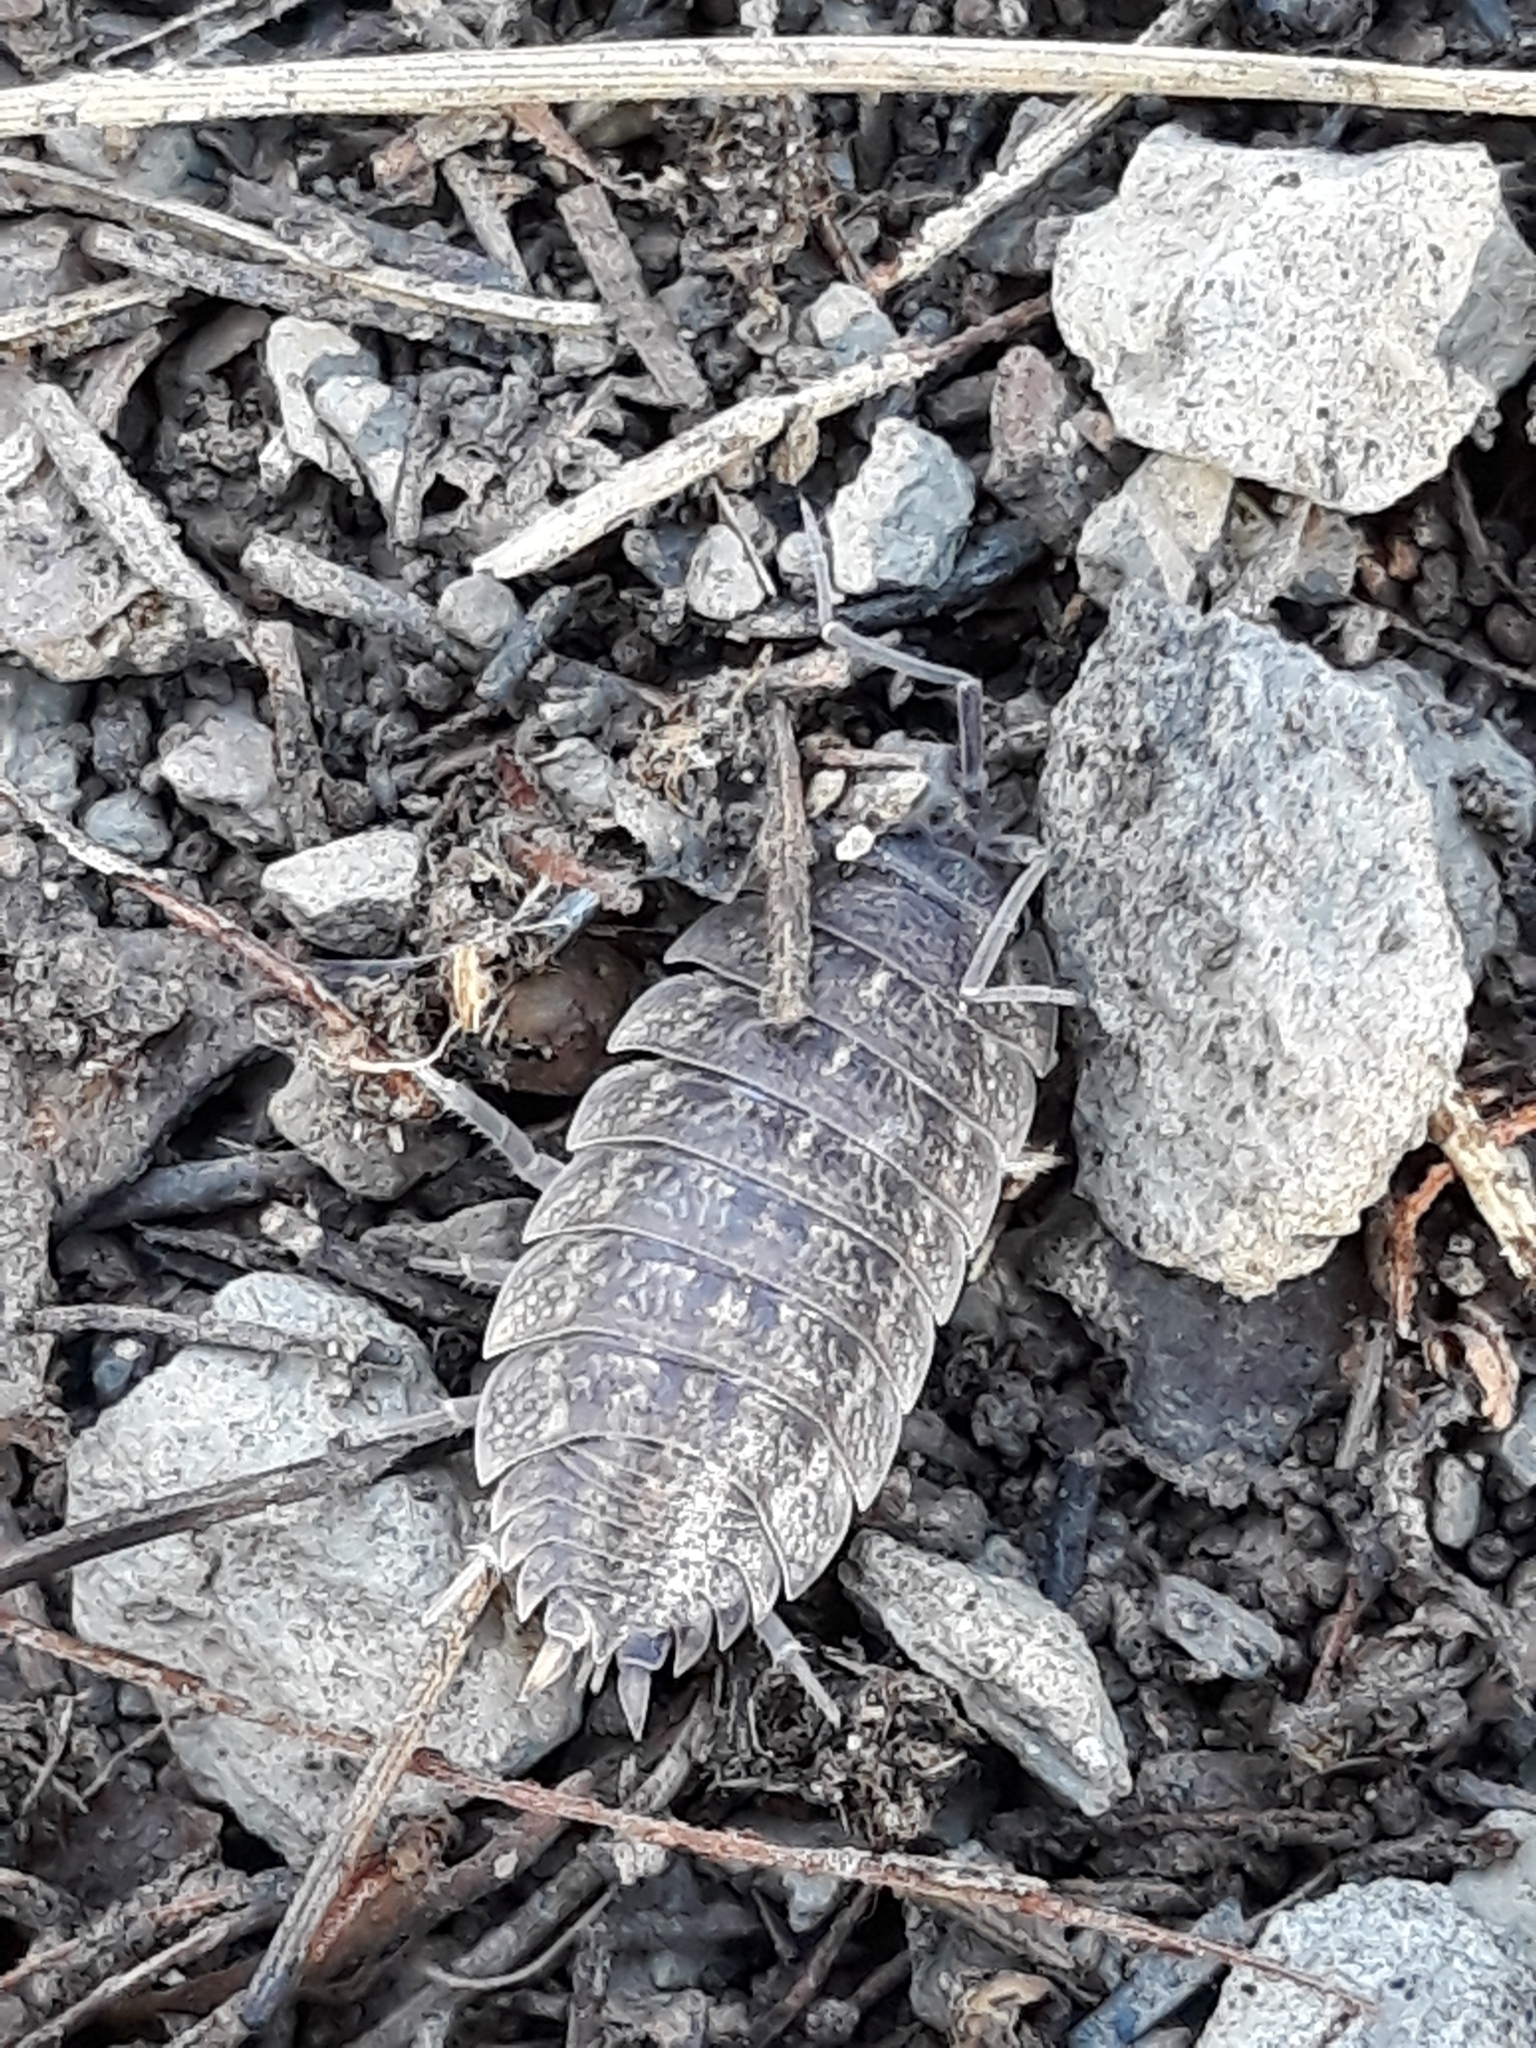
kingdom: Animalia
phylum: Arthropoda
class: Malacostraca
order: Isopoda
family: Porcellionidae
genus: Porcellio
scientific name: Porcellio variabilis
